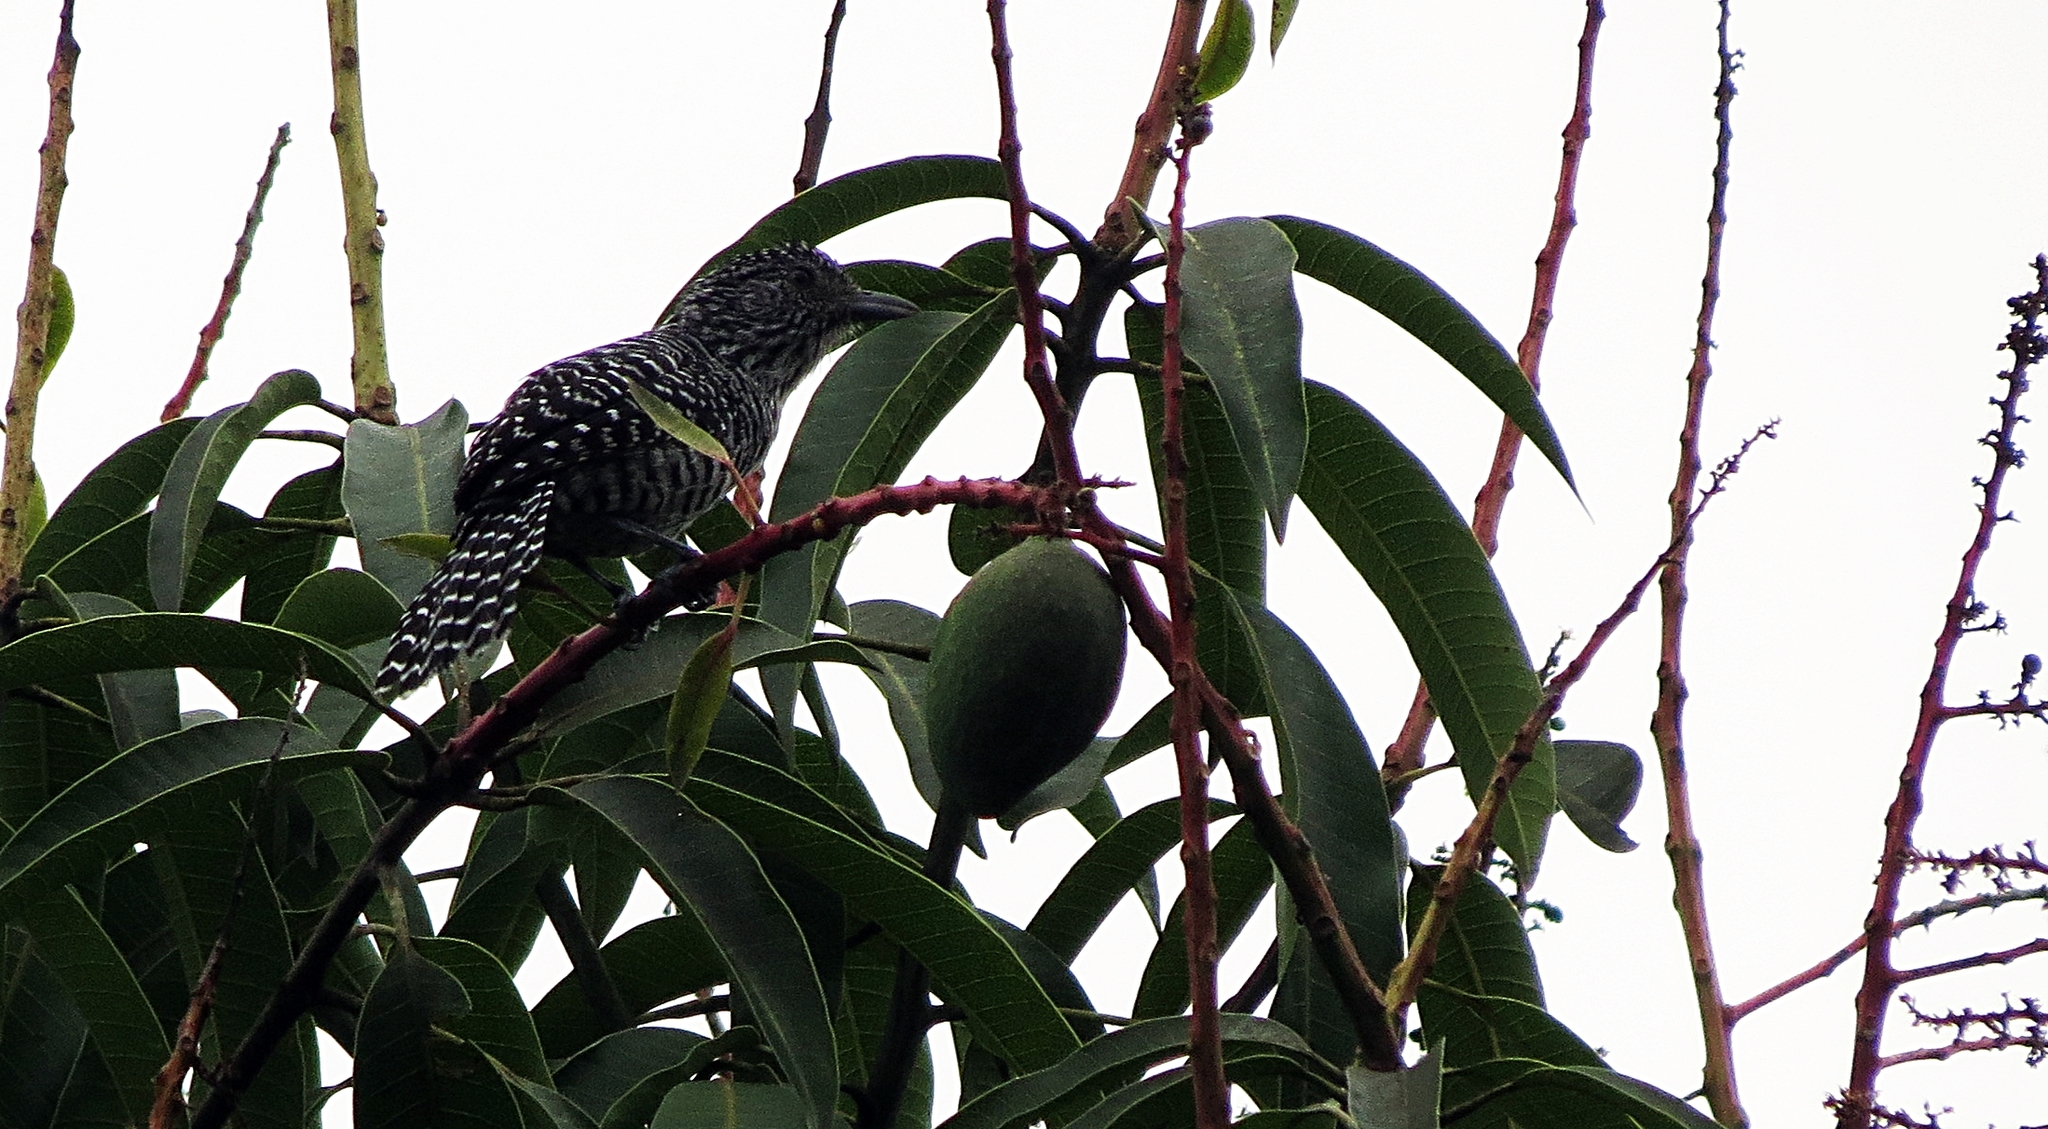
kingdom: Animalia
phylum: Chordata
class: Aves
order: Passeriformes
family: Thamnophilidae
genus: Thamnophilus
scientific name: Thamnophilus multistriatus
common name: Bar-crested antshrike
